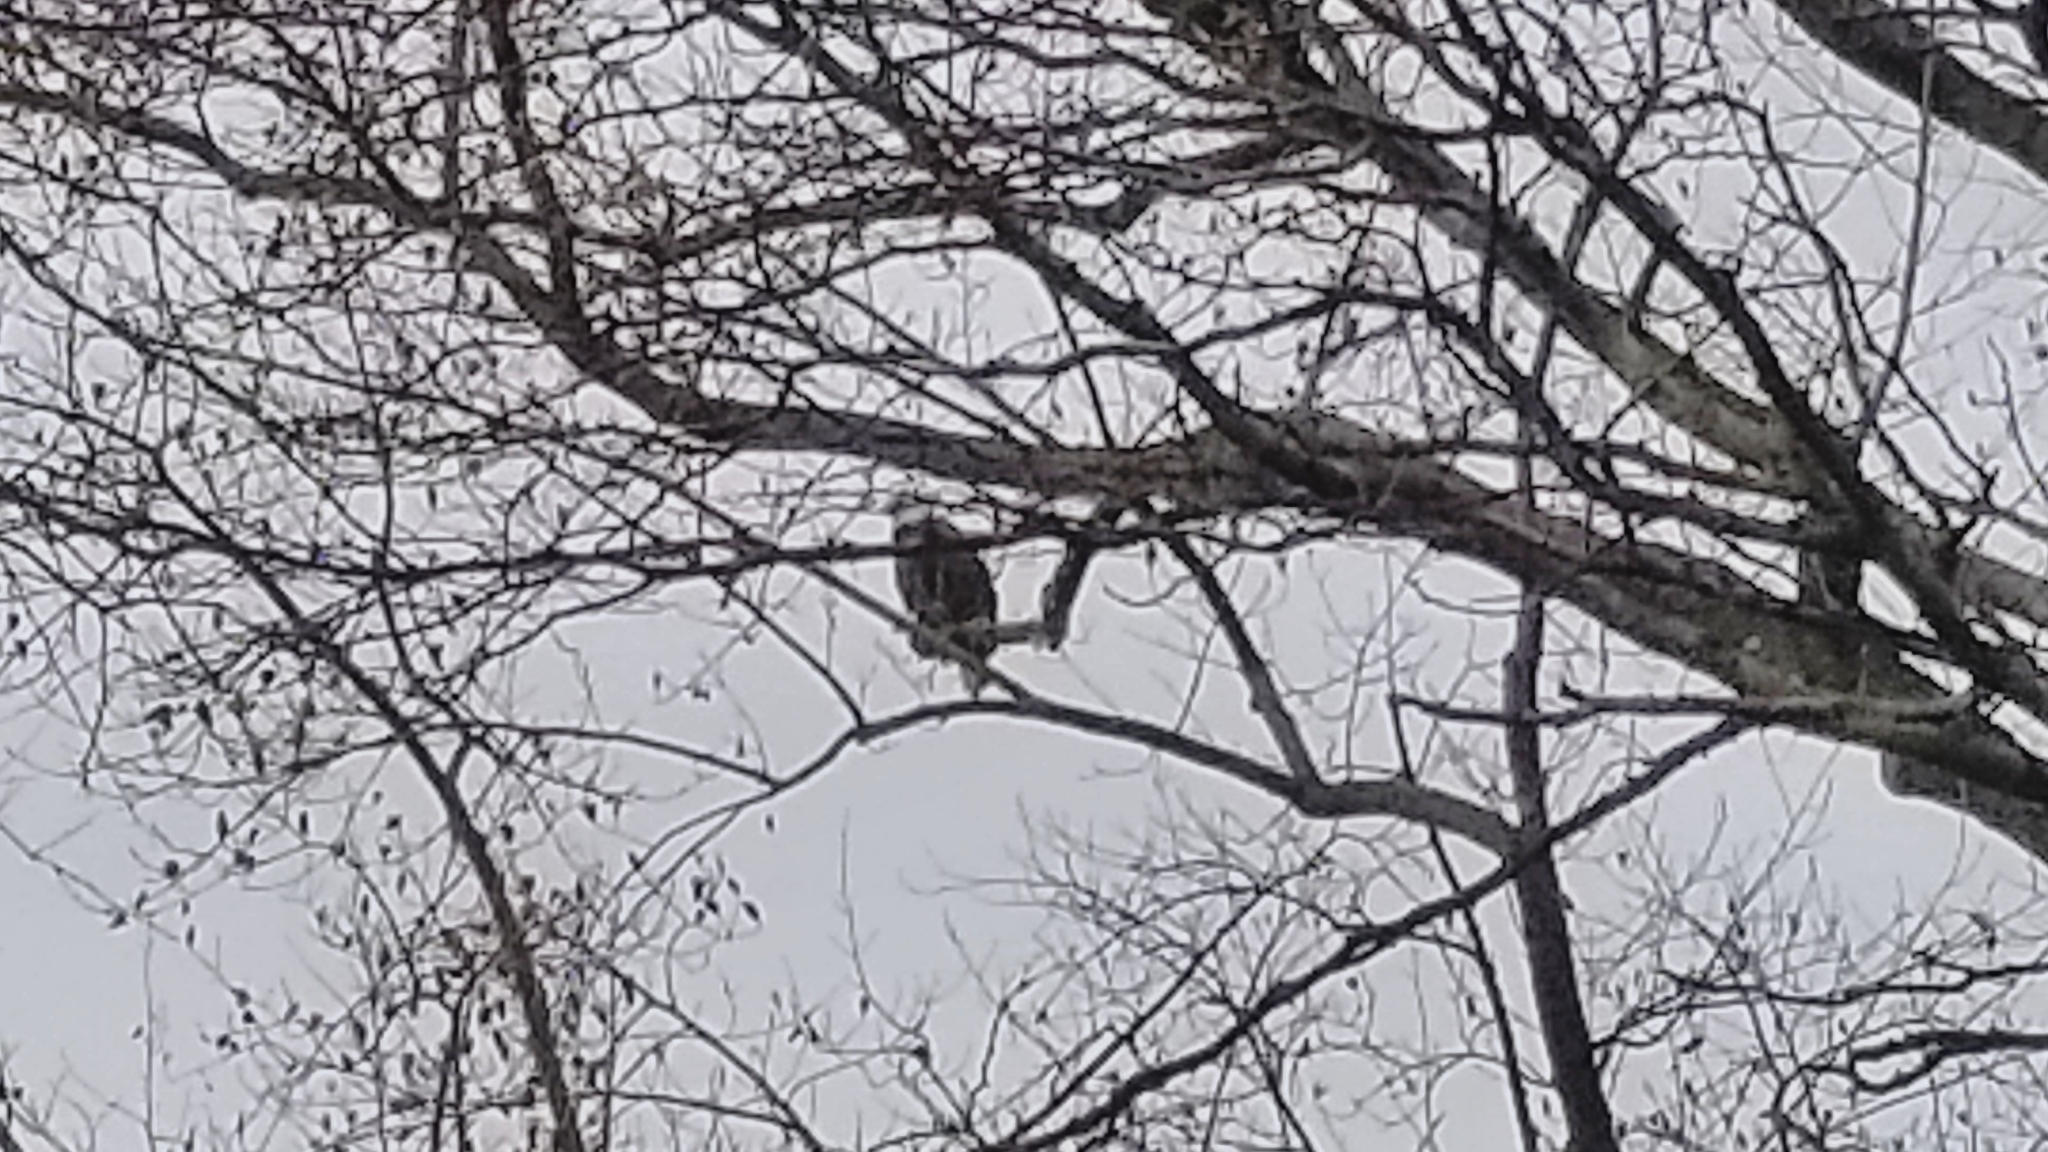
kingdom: Animalia
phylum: Chordata
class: Aves
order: Accipitriformes
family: Accipitridae
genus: Haliaeetus
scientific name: Haliaeetus leucocephalus
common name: Bald eagle
